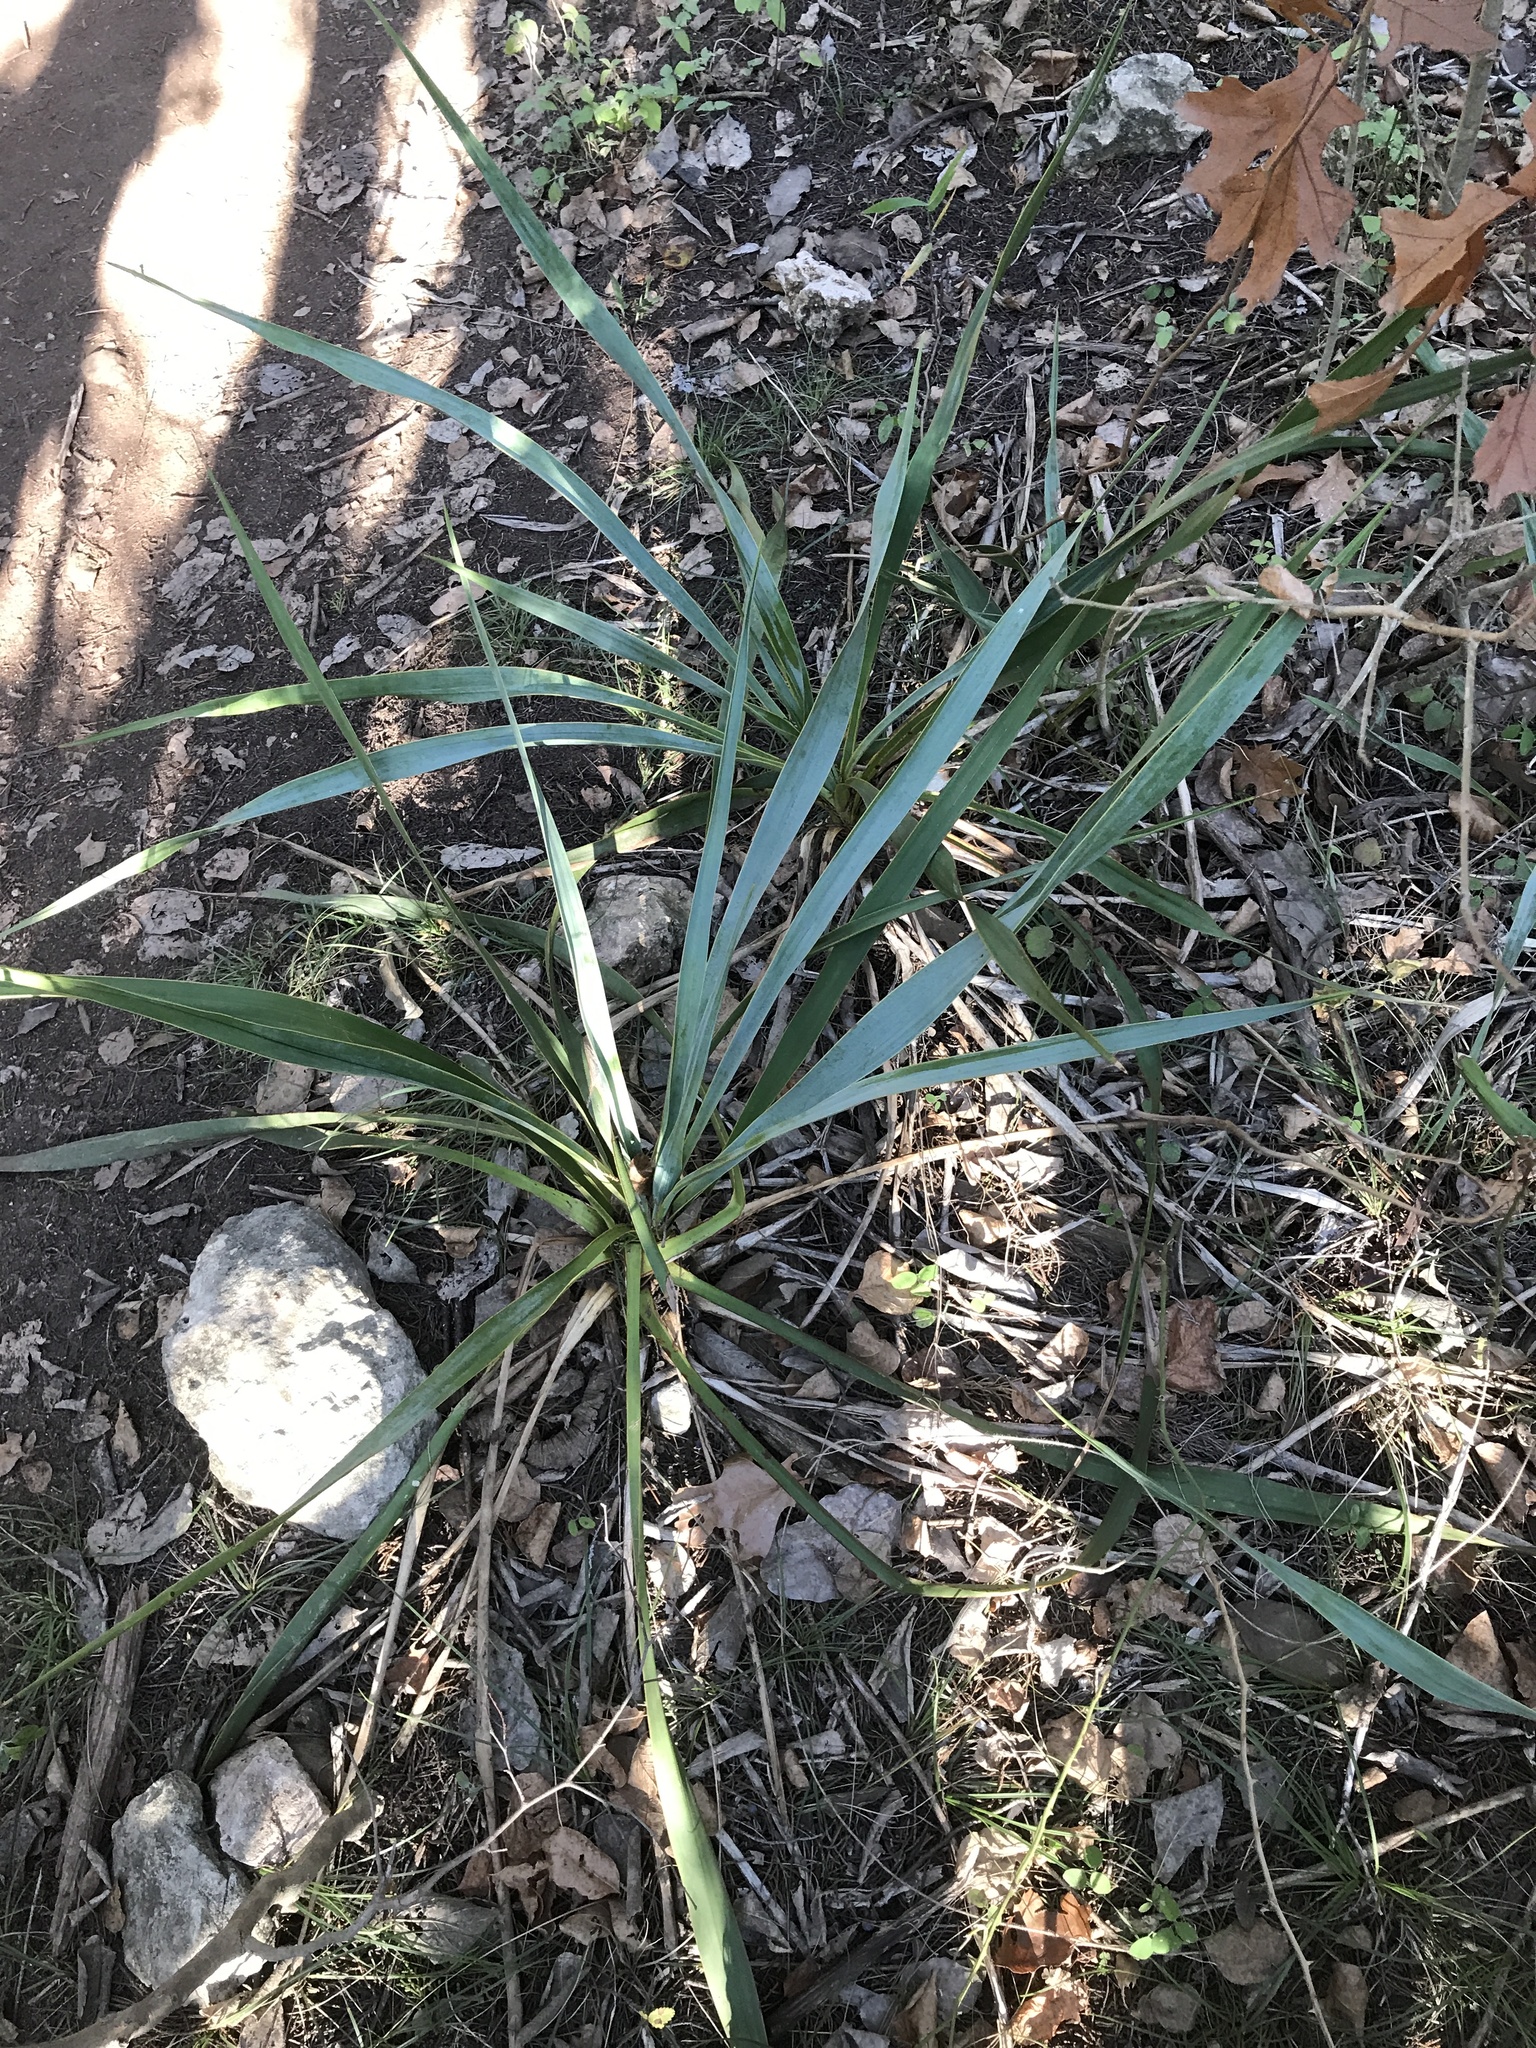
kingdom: Plantae
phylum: Tracheophyta
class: Liliopsida
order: Asparagales
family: Asparagaceae
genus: Yucca
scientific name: Yucca rupicola
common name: Twisted-leaf spanish-dagger
